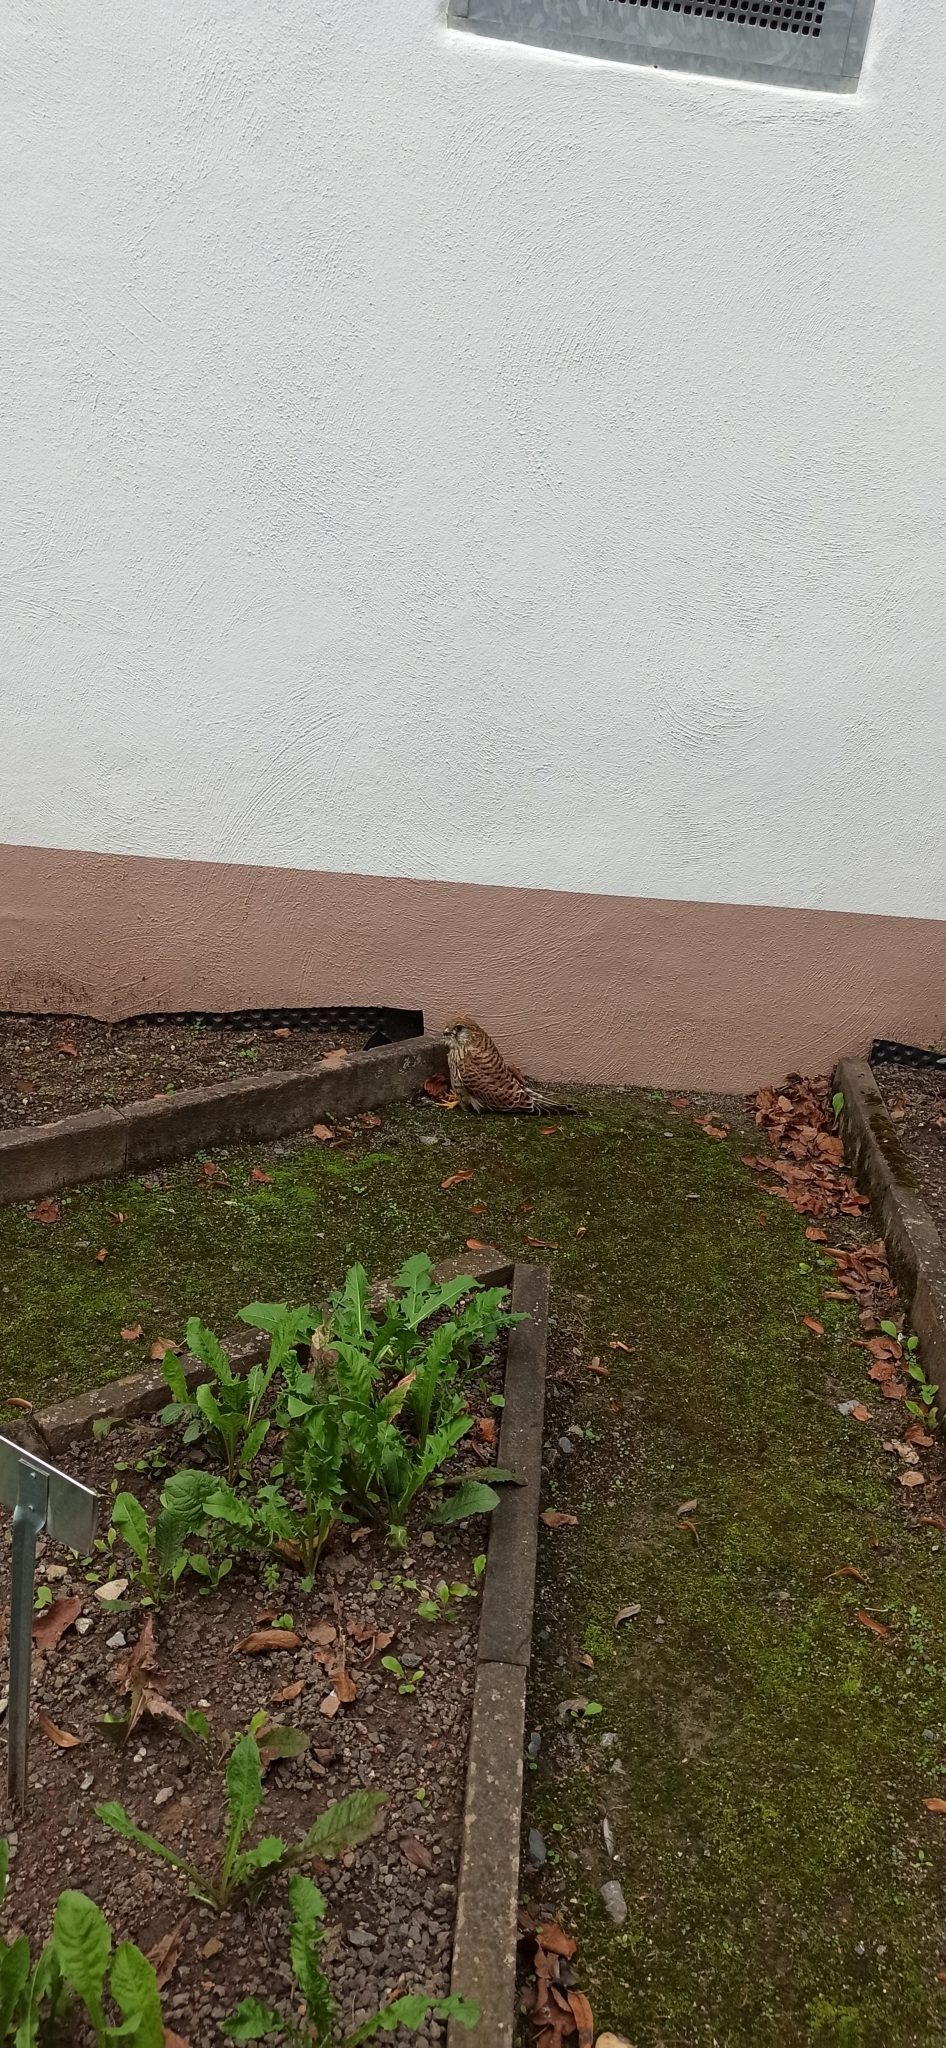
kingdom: Animalia
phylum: Chordata
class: Aves
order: Falconiformes
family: Falconidae
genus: Falco
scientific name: Falco tinnunculus
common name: Common kestrel
